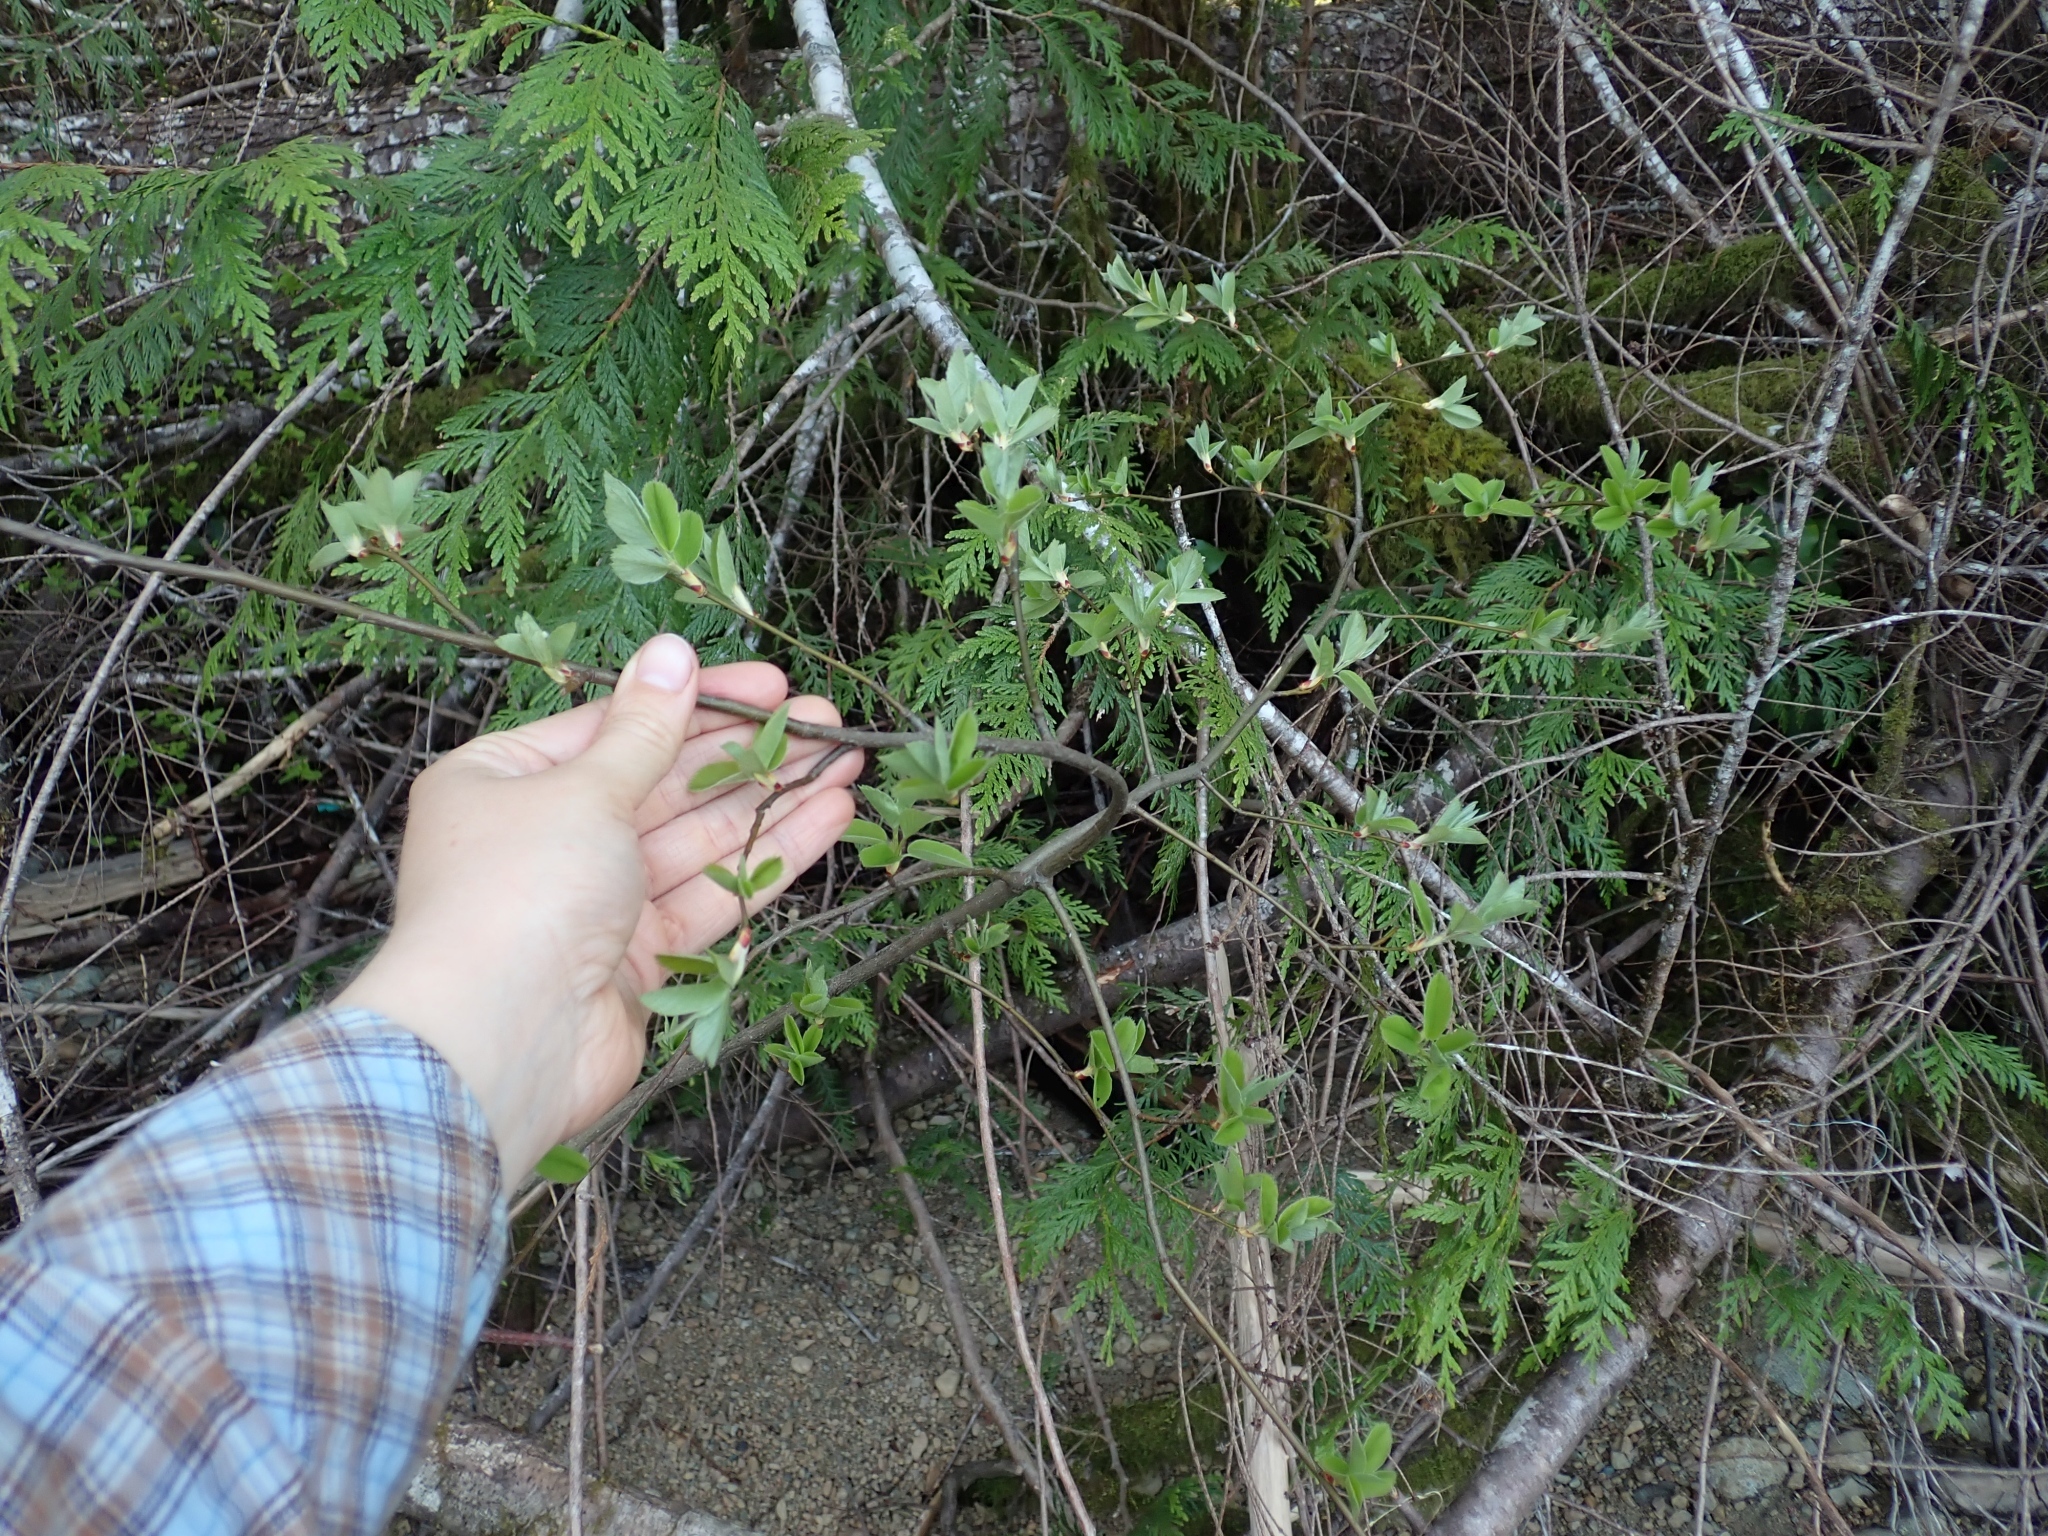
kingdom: Plantae
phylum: Tracheophyta
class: Magnoliopsida
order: Rosales
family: Rosaceae
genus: Amelanchier
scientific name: Amelanchier alnifolia
